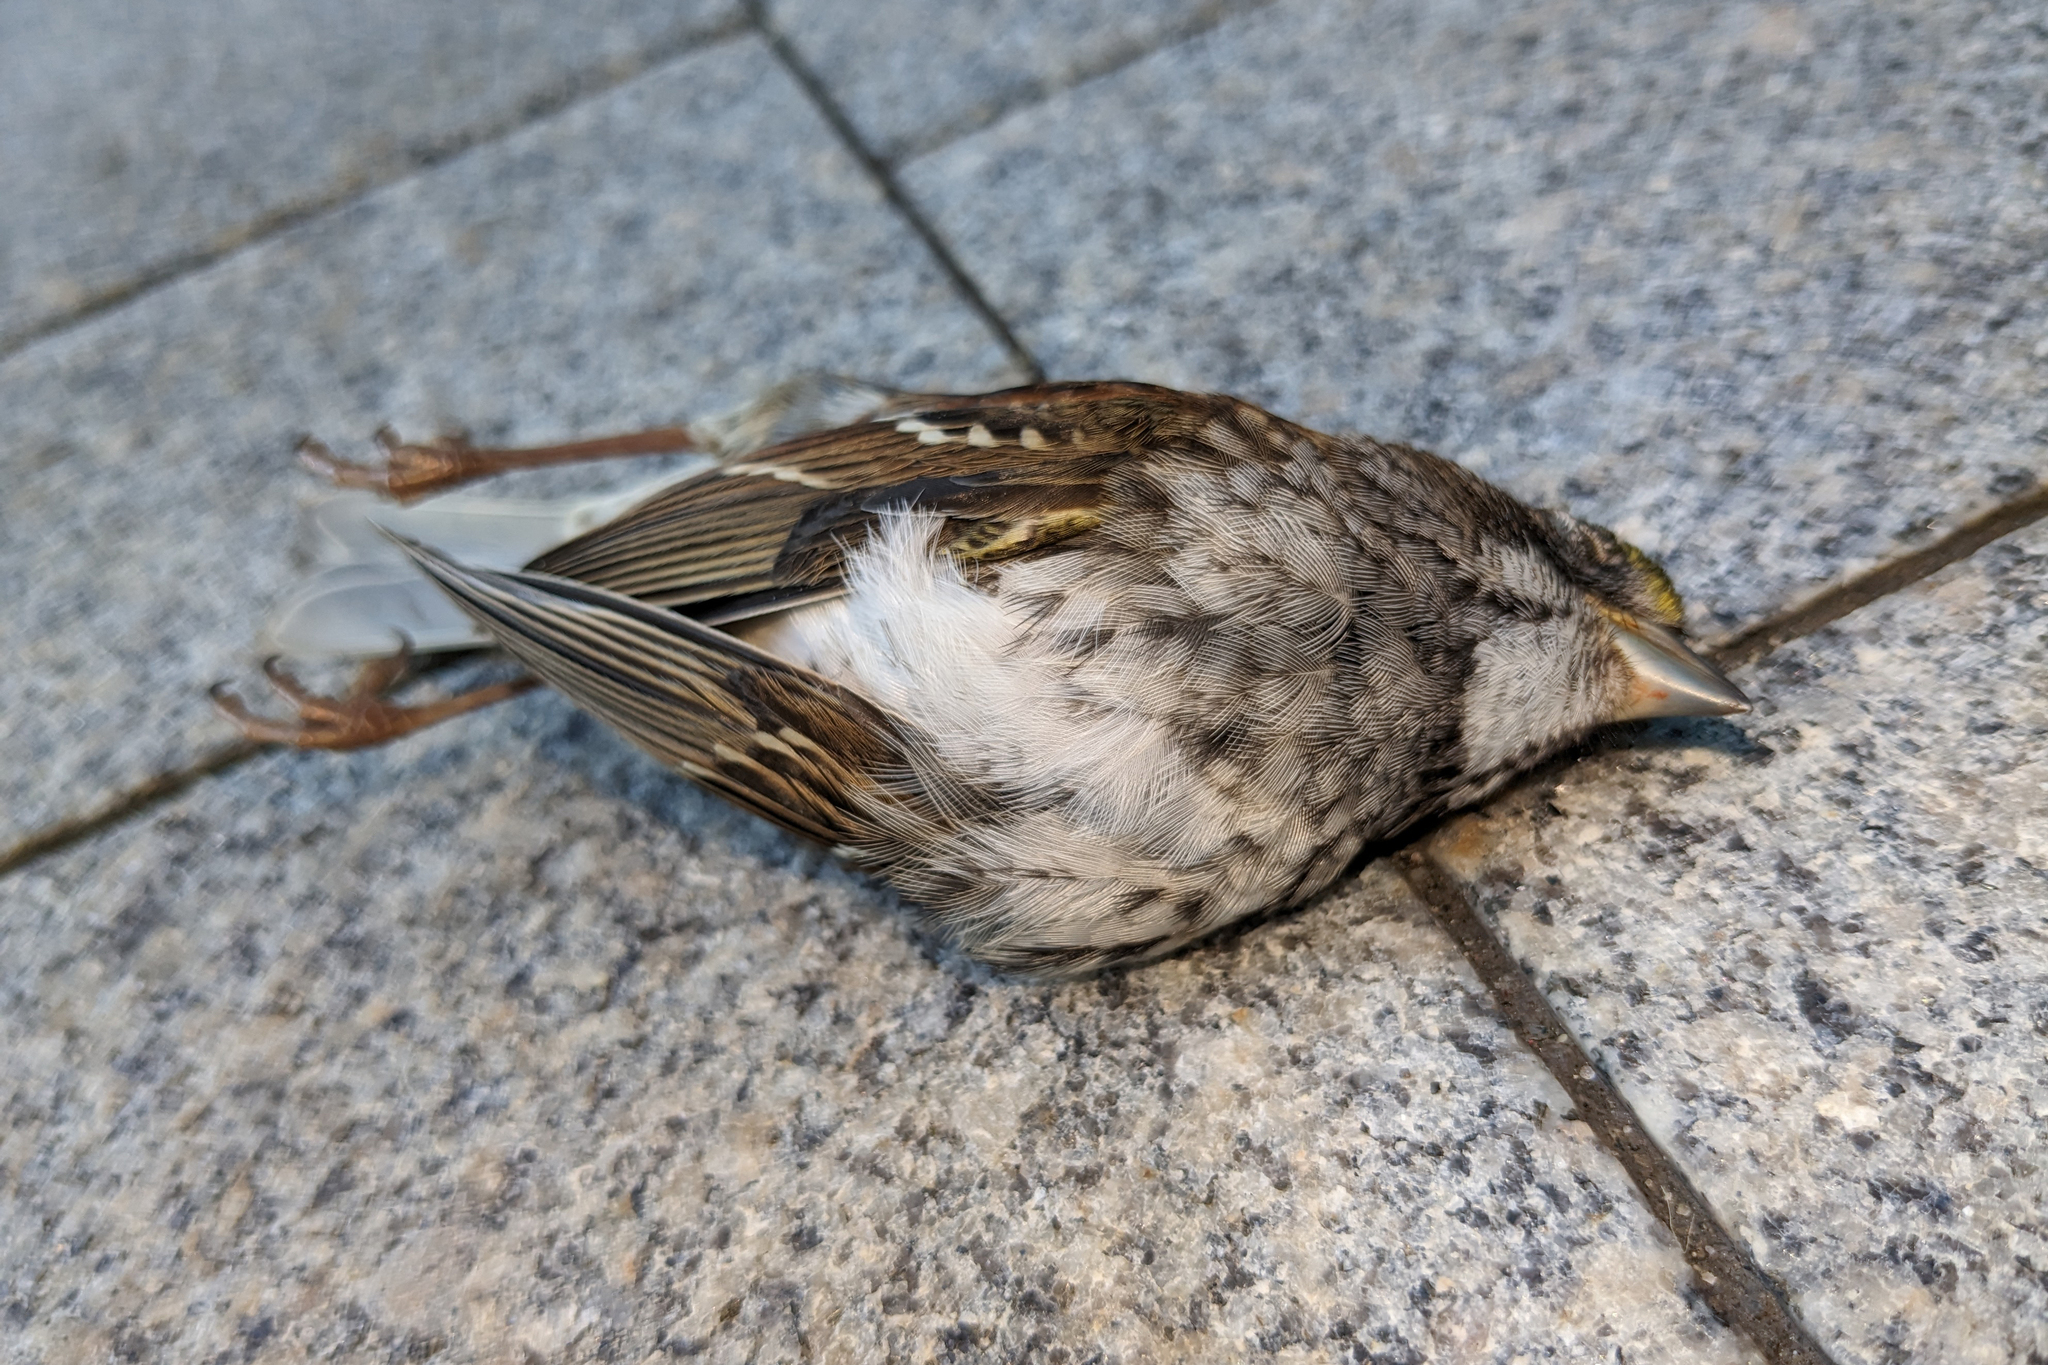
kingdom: Animalia
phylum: Chordata
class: Aves
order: Passeriformes
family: Passerellidae
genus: Zonotrichia
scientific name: Zonotrichia albicollis
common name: White-throated sparrow
